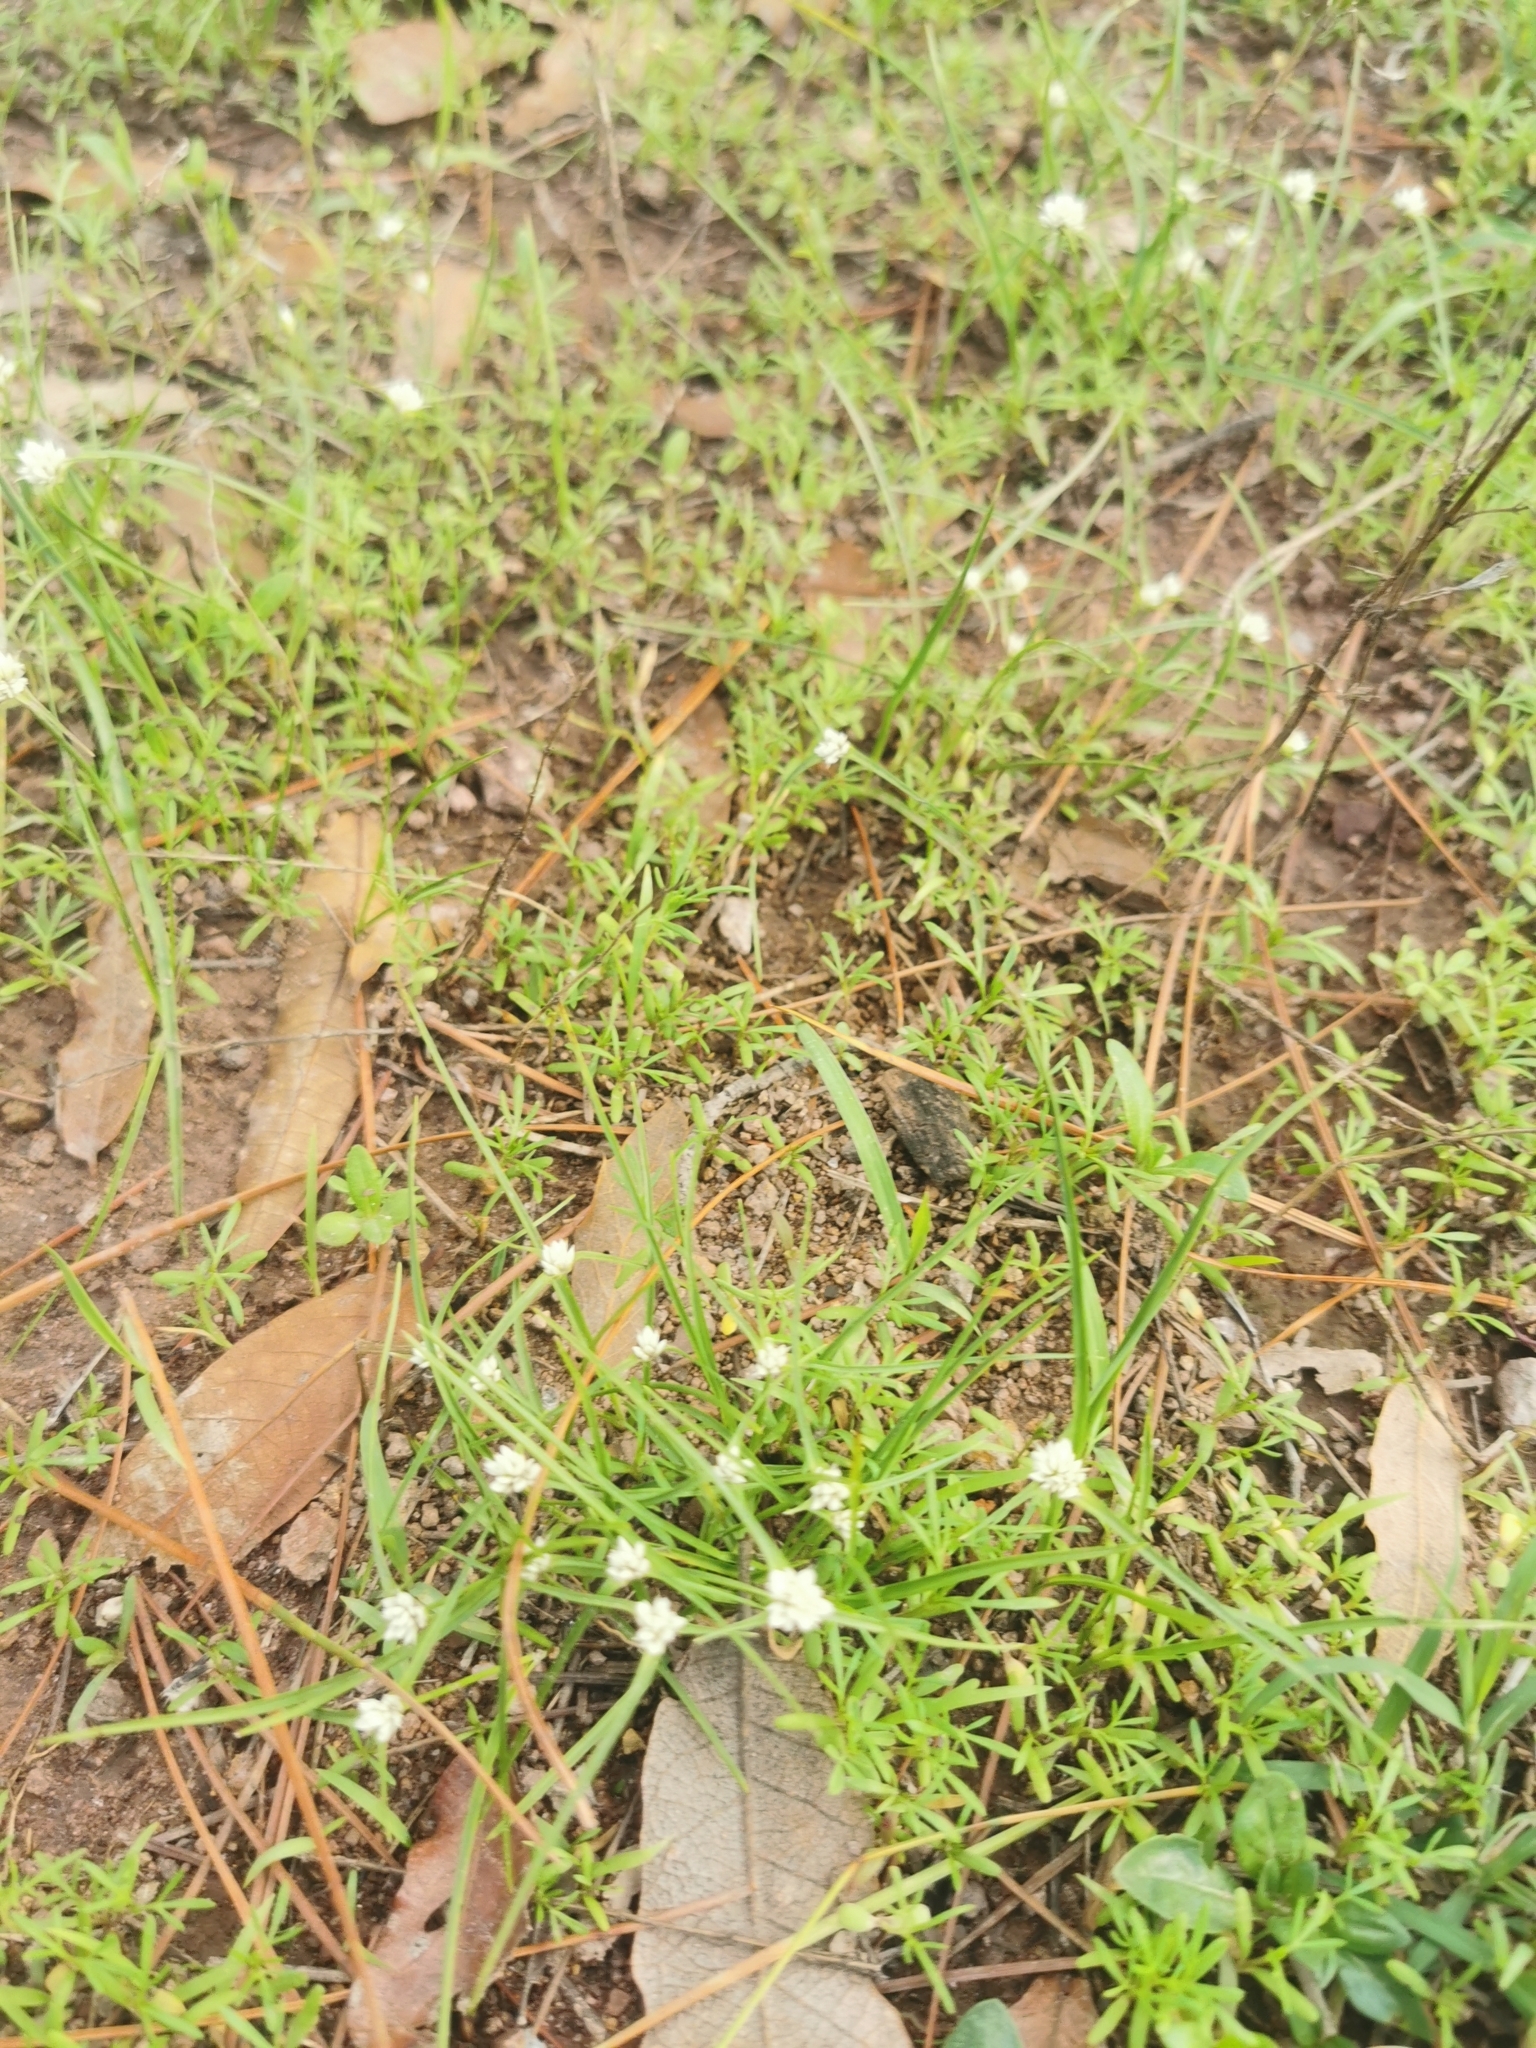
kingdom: Plantae
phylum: Tracheophyta
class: Liliopsida
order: Poales
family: Cyperaceae
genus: Cyperus
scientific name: Cyperus seslerioides
